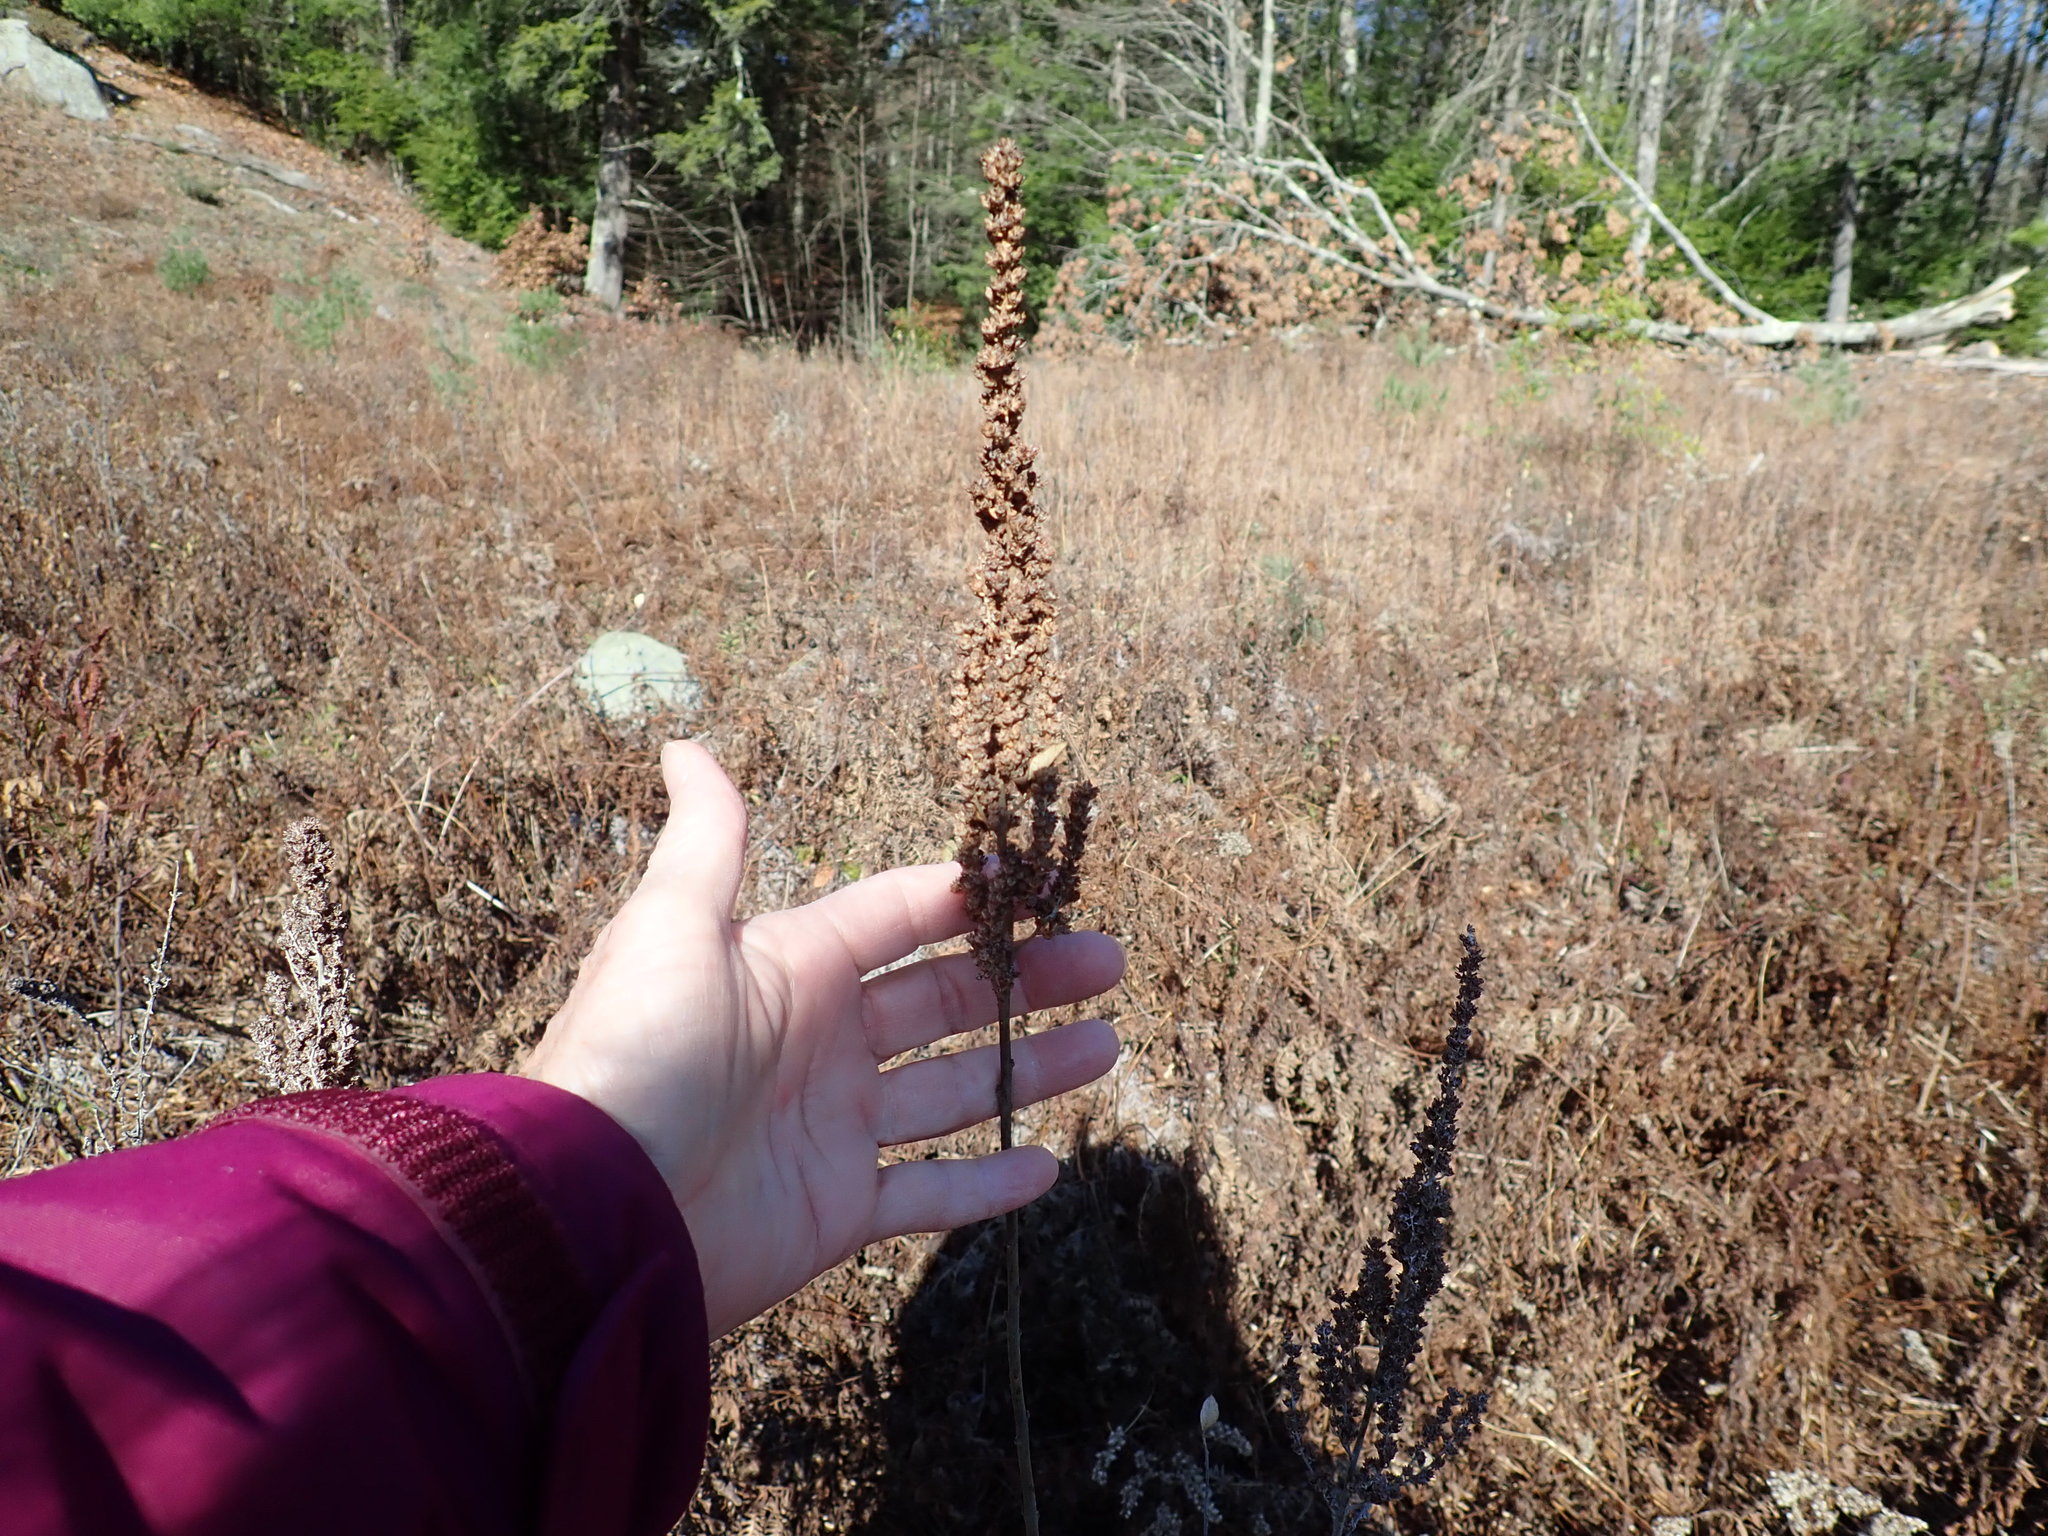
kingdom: Plantae
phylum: Tracheophyta
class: Magnoliopsida
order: Rosales
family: Rosaceae
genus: Spiraea
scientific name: Spiraea tomentosa
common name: Hardhack
